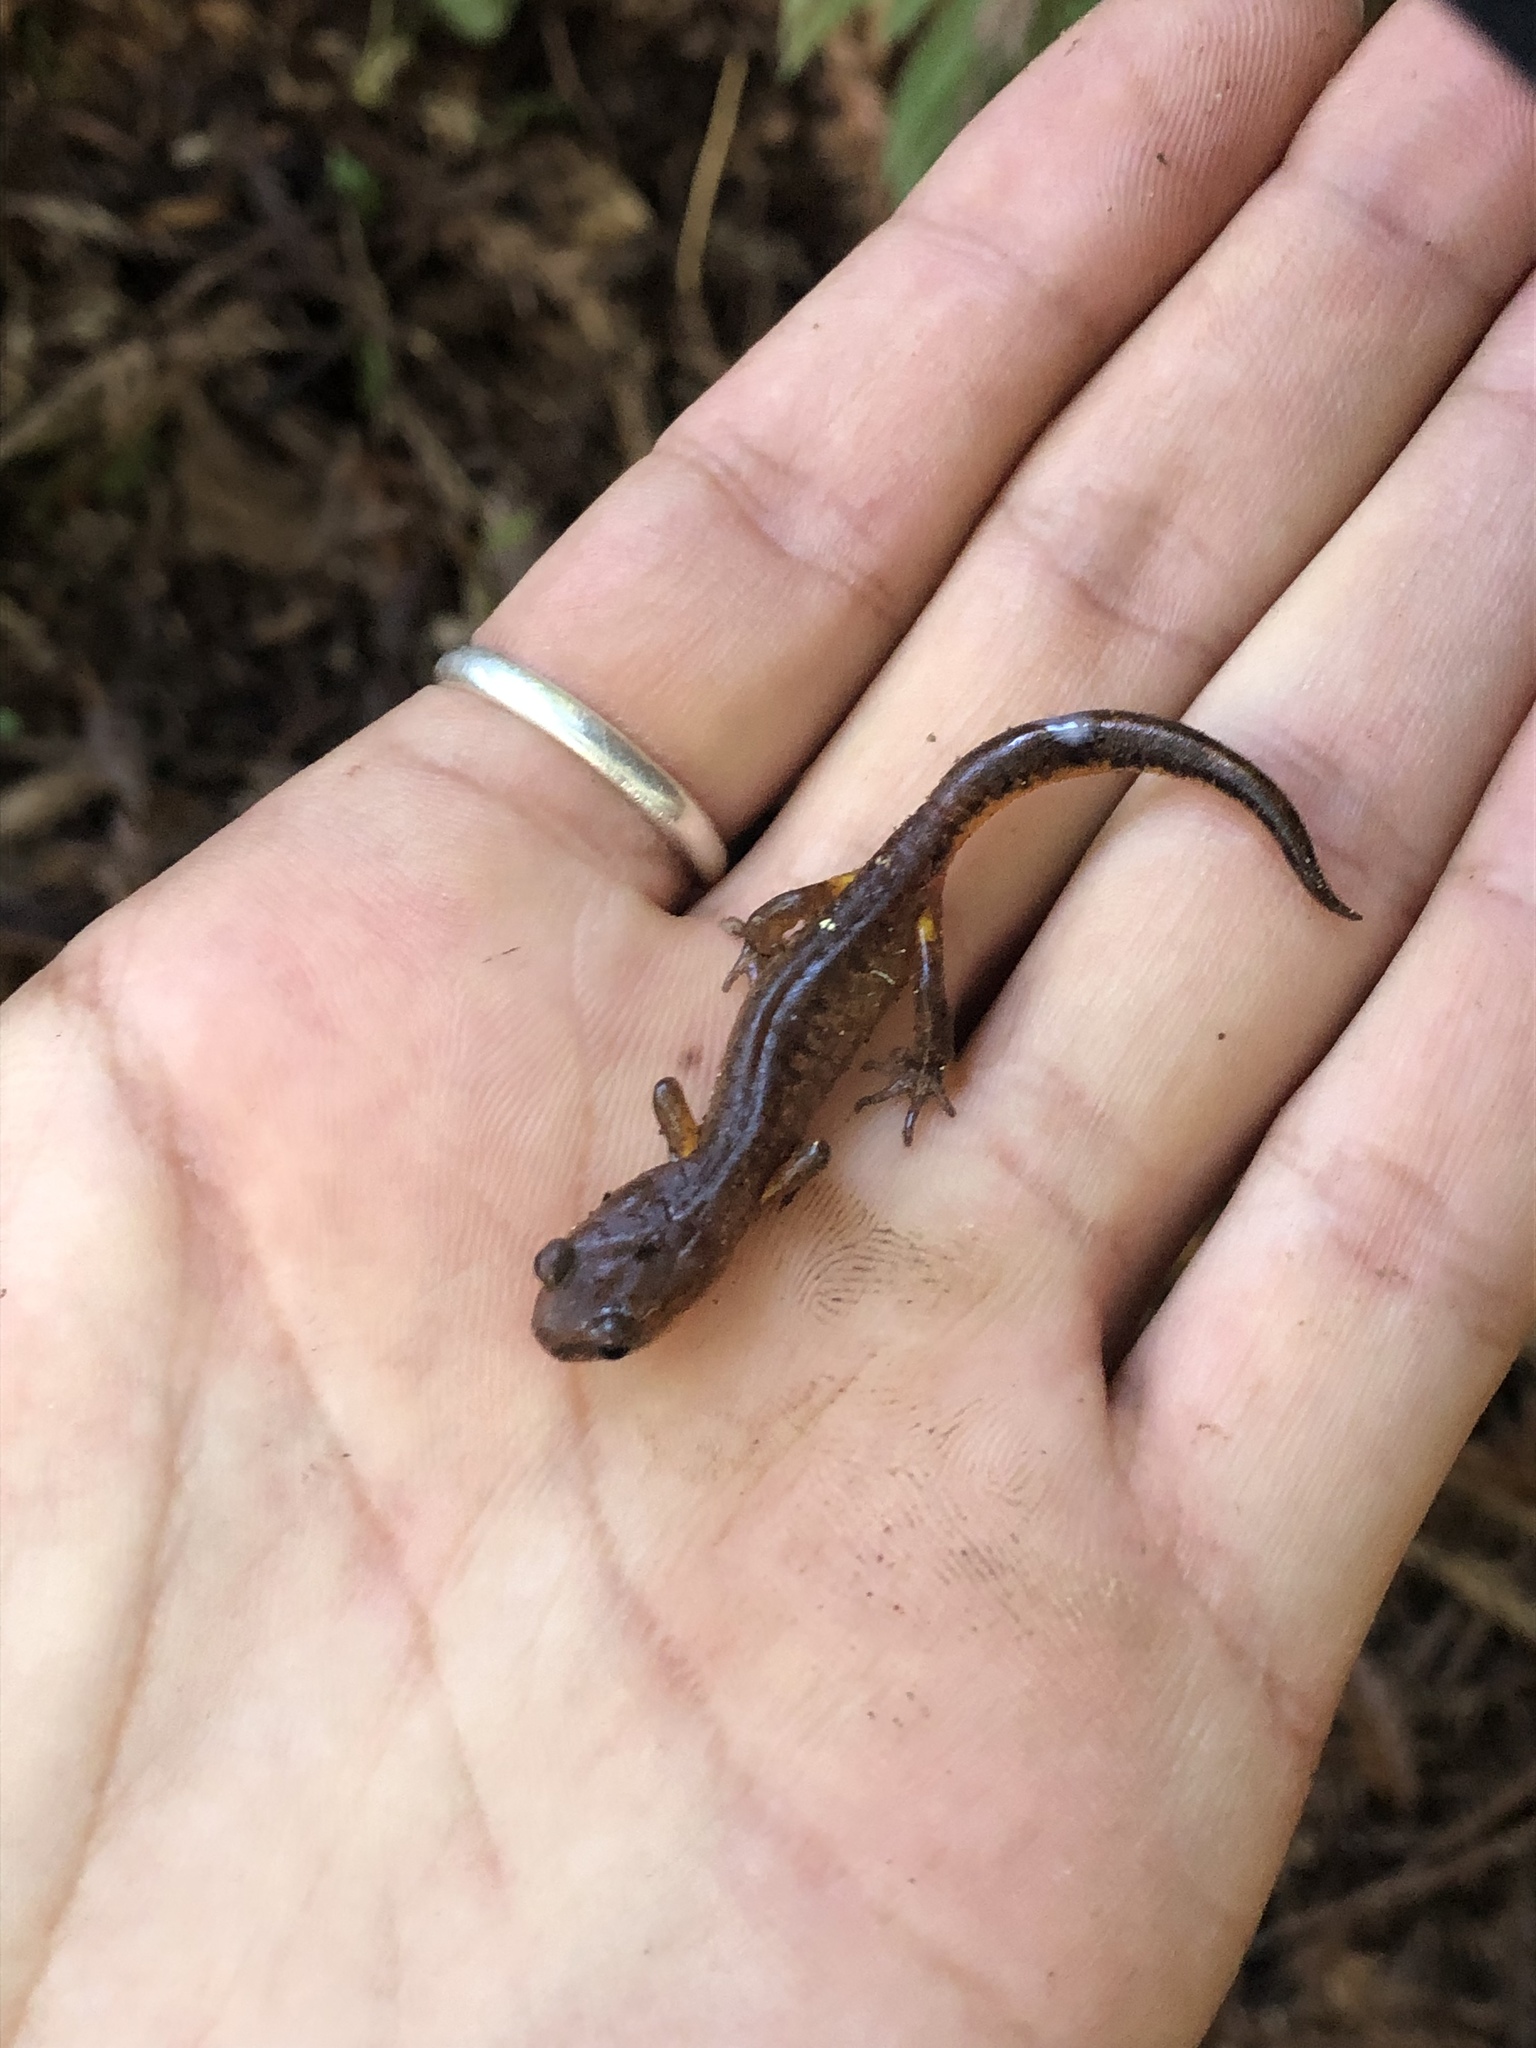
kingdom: Animalia
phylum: Chordata
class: Amphibia
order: Caudata
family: Plethodontidae
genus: Ensatina
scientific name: Ensatina eschscholtzii
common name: Ensatina
